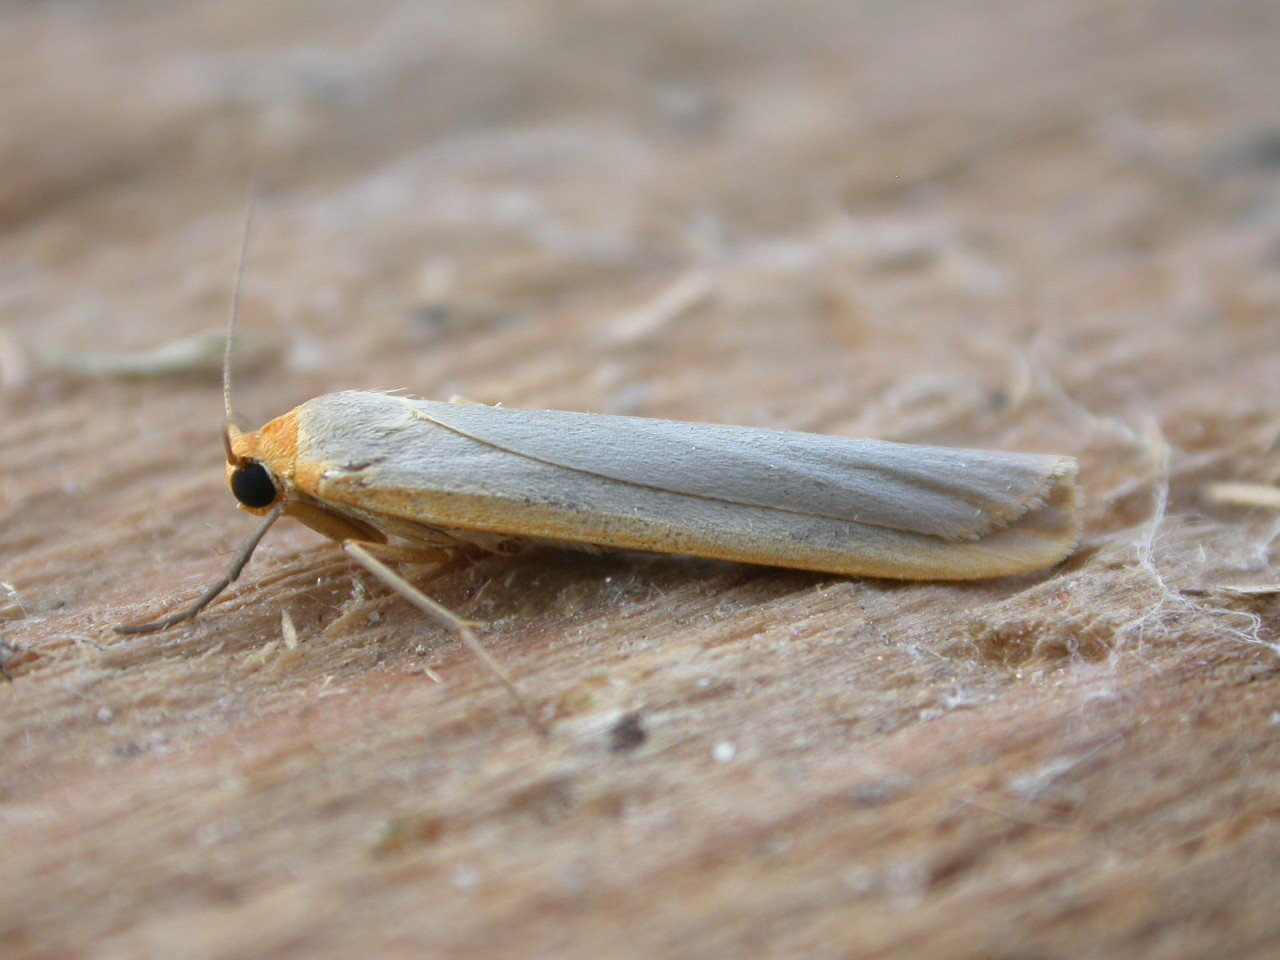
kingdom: Animalia
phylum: Arthropoda
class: Insecta
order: Lepidoptera
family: Erebidae
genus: Manulea
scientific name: Manulea complana
